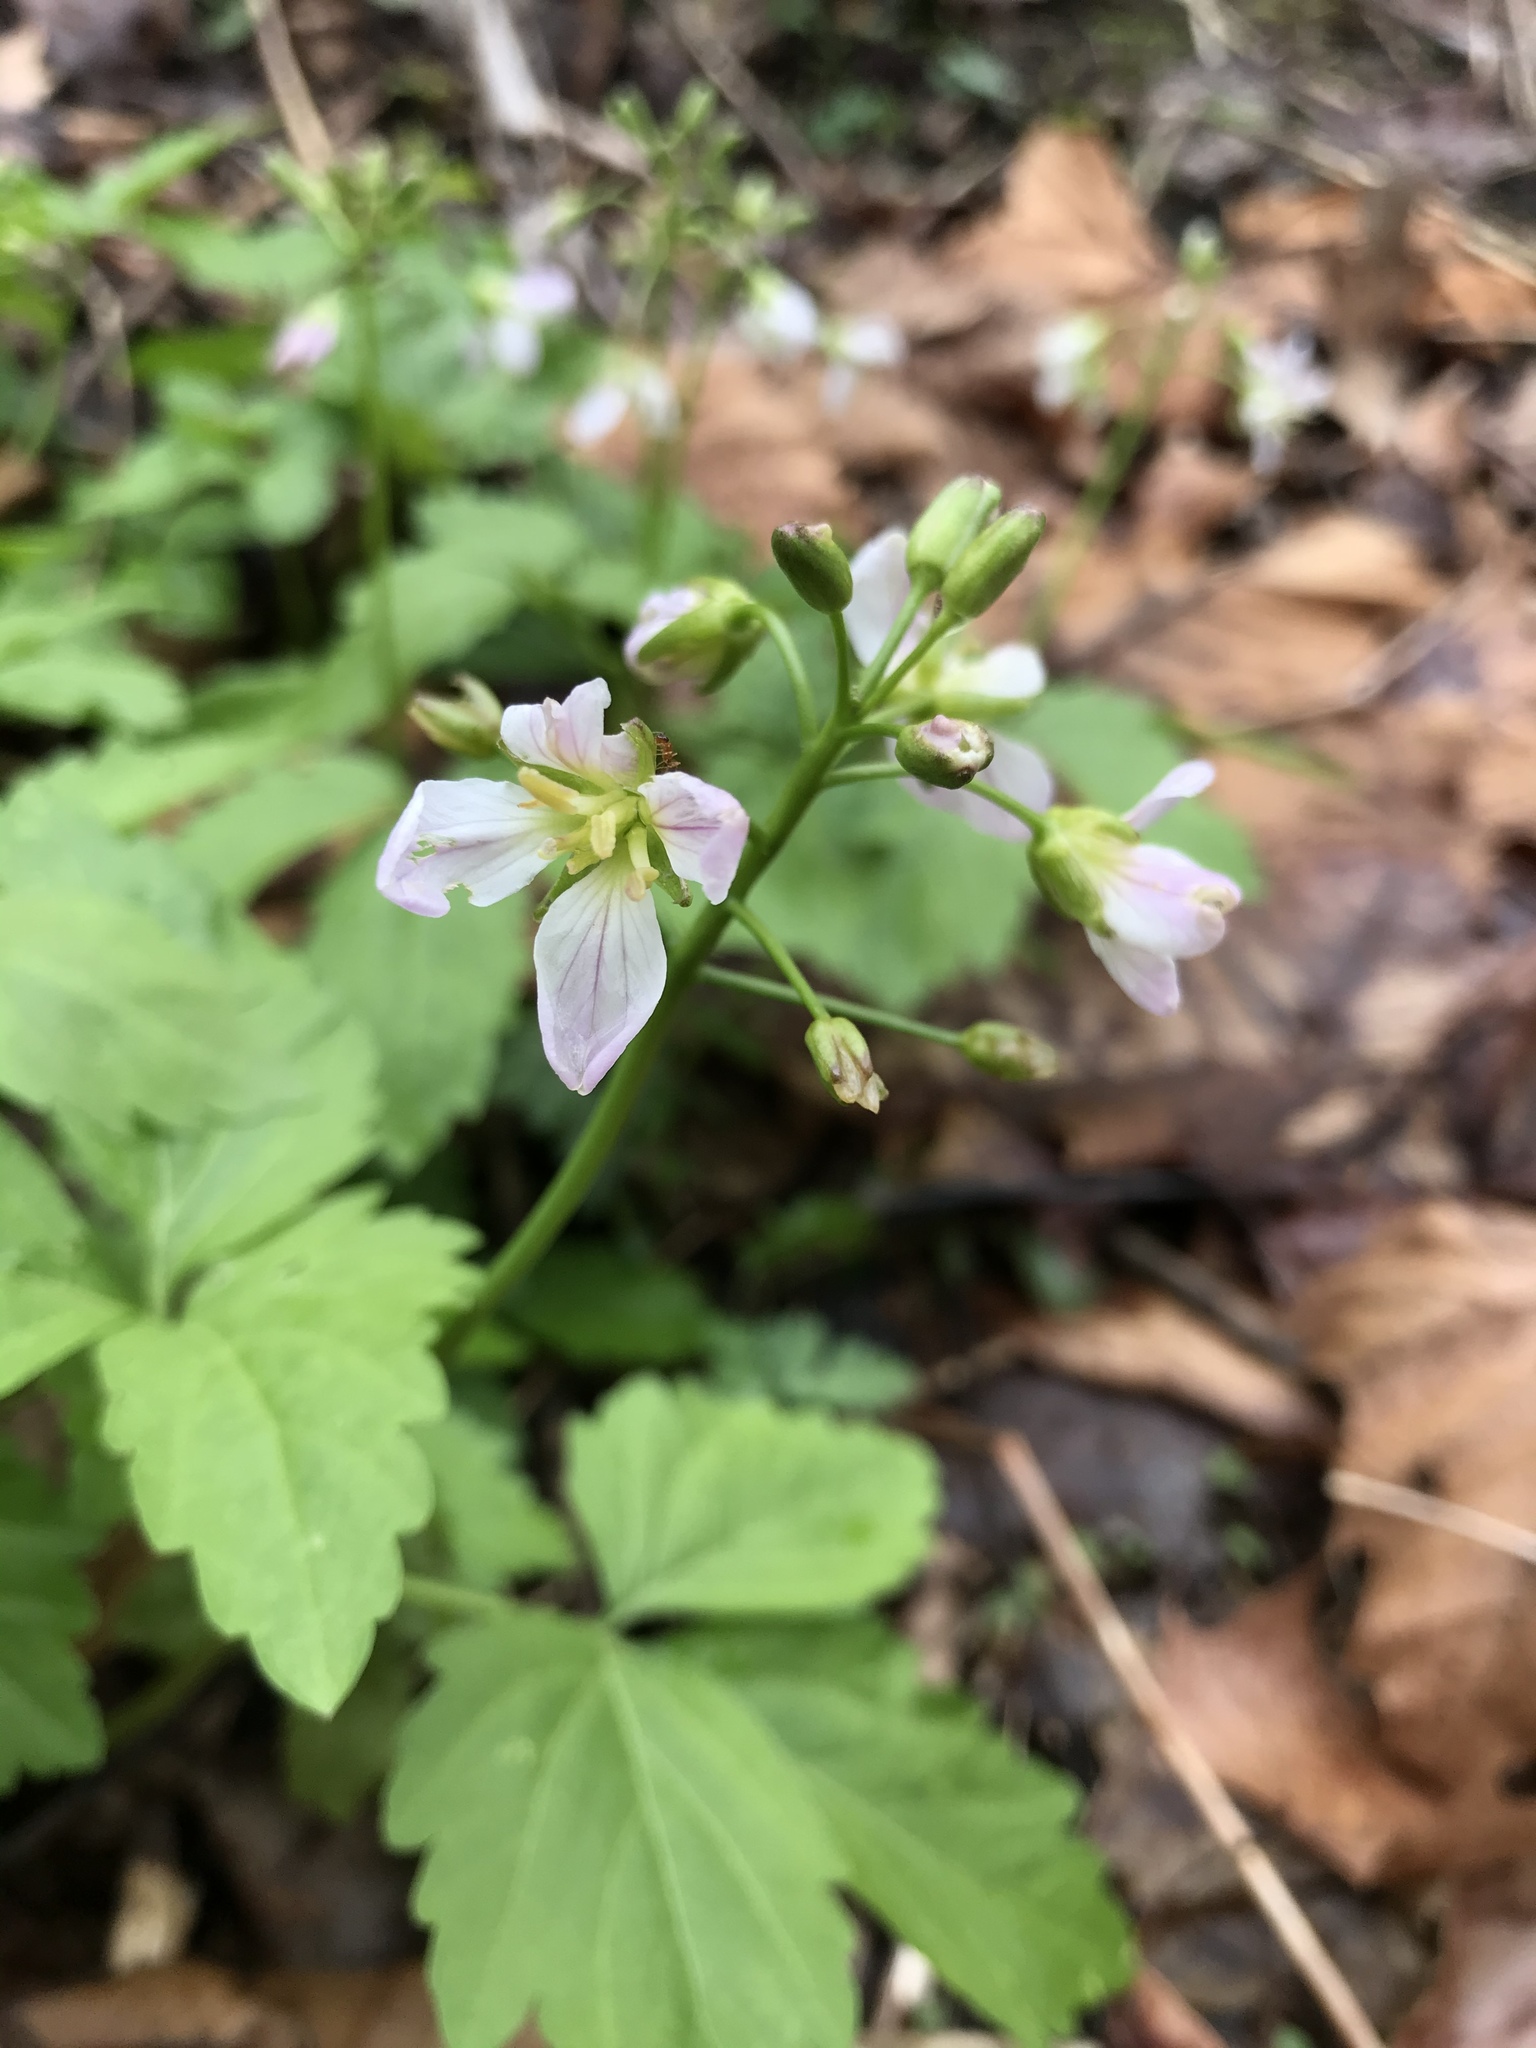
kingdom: Plantae
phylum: Tracheophyta
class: Magnoliopsida
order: Brassicales
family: Brassicaceae
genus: Cardamine
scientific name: Cardamine diphylla
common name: Broad-leaved toothwort
